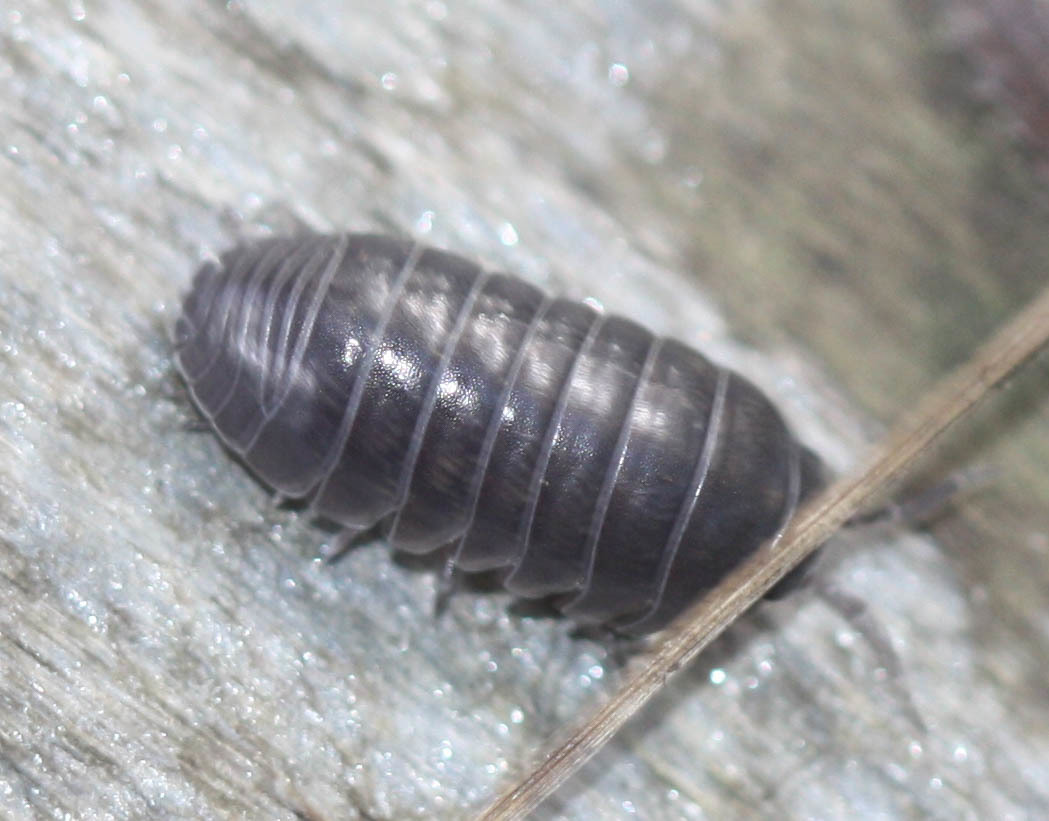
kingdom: Animalia
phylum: Arthropoda
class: Malacostraca
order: Isopoda
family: Armadillidiidae
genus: Armadillidium
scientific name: Armadillidium vulgare
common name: Common pill woodlouse
